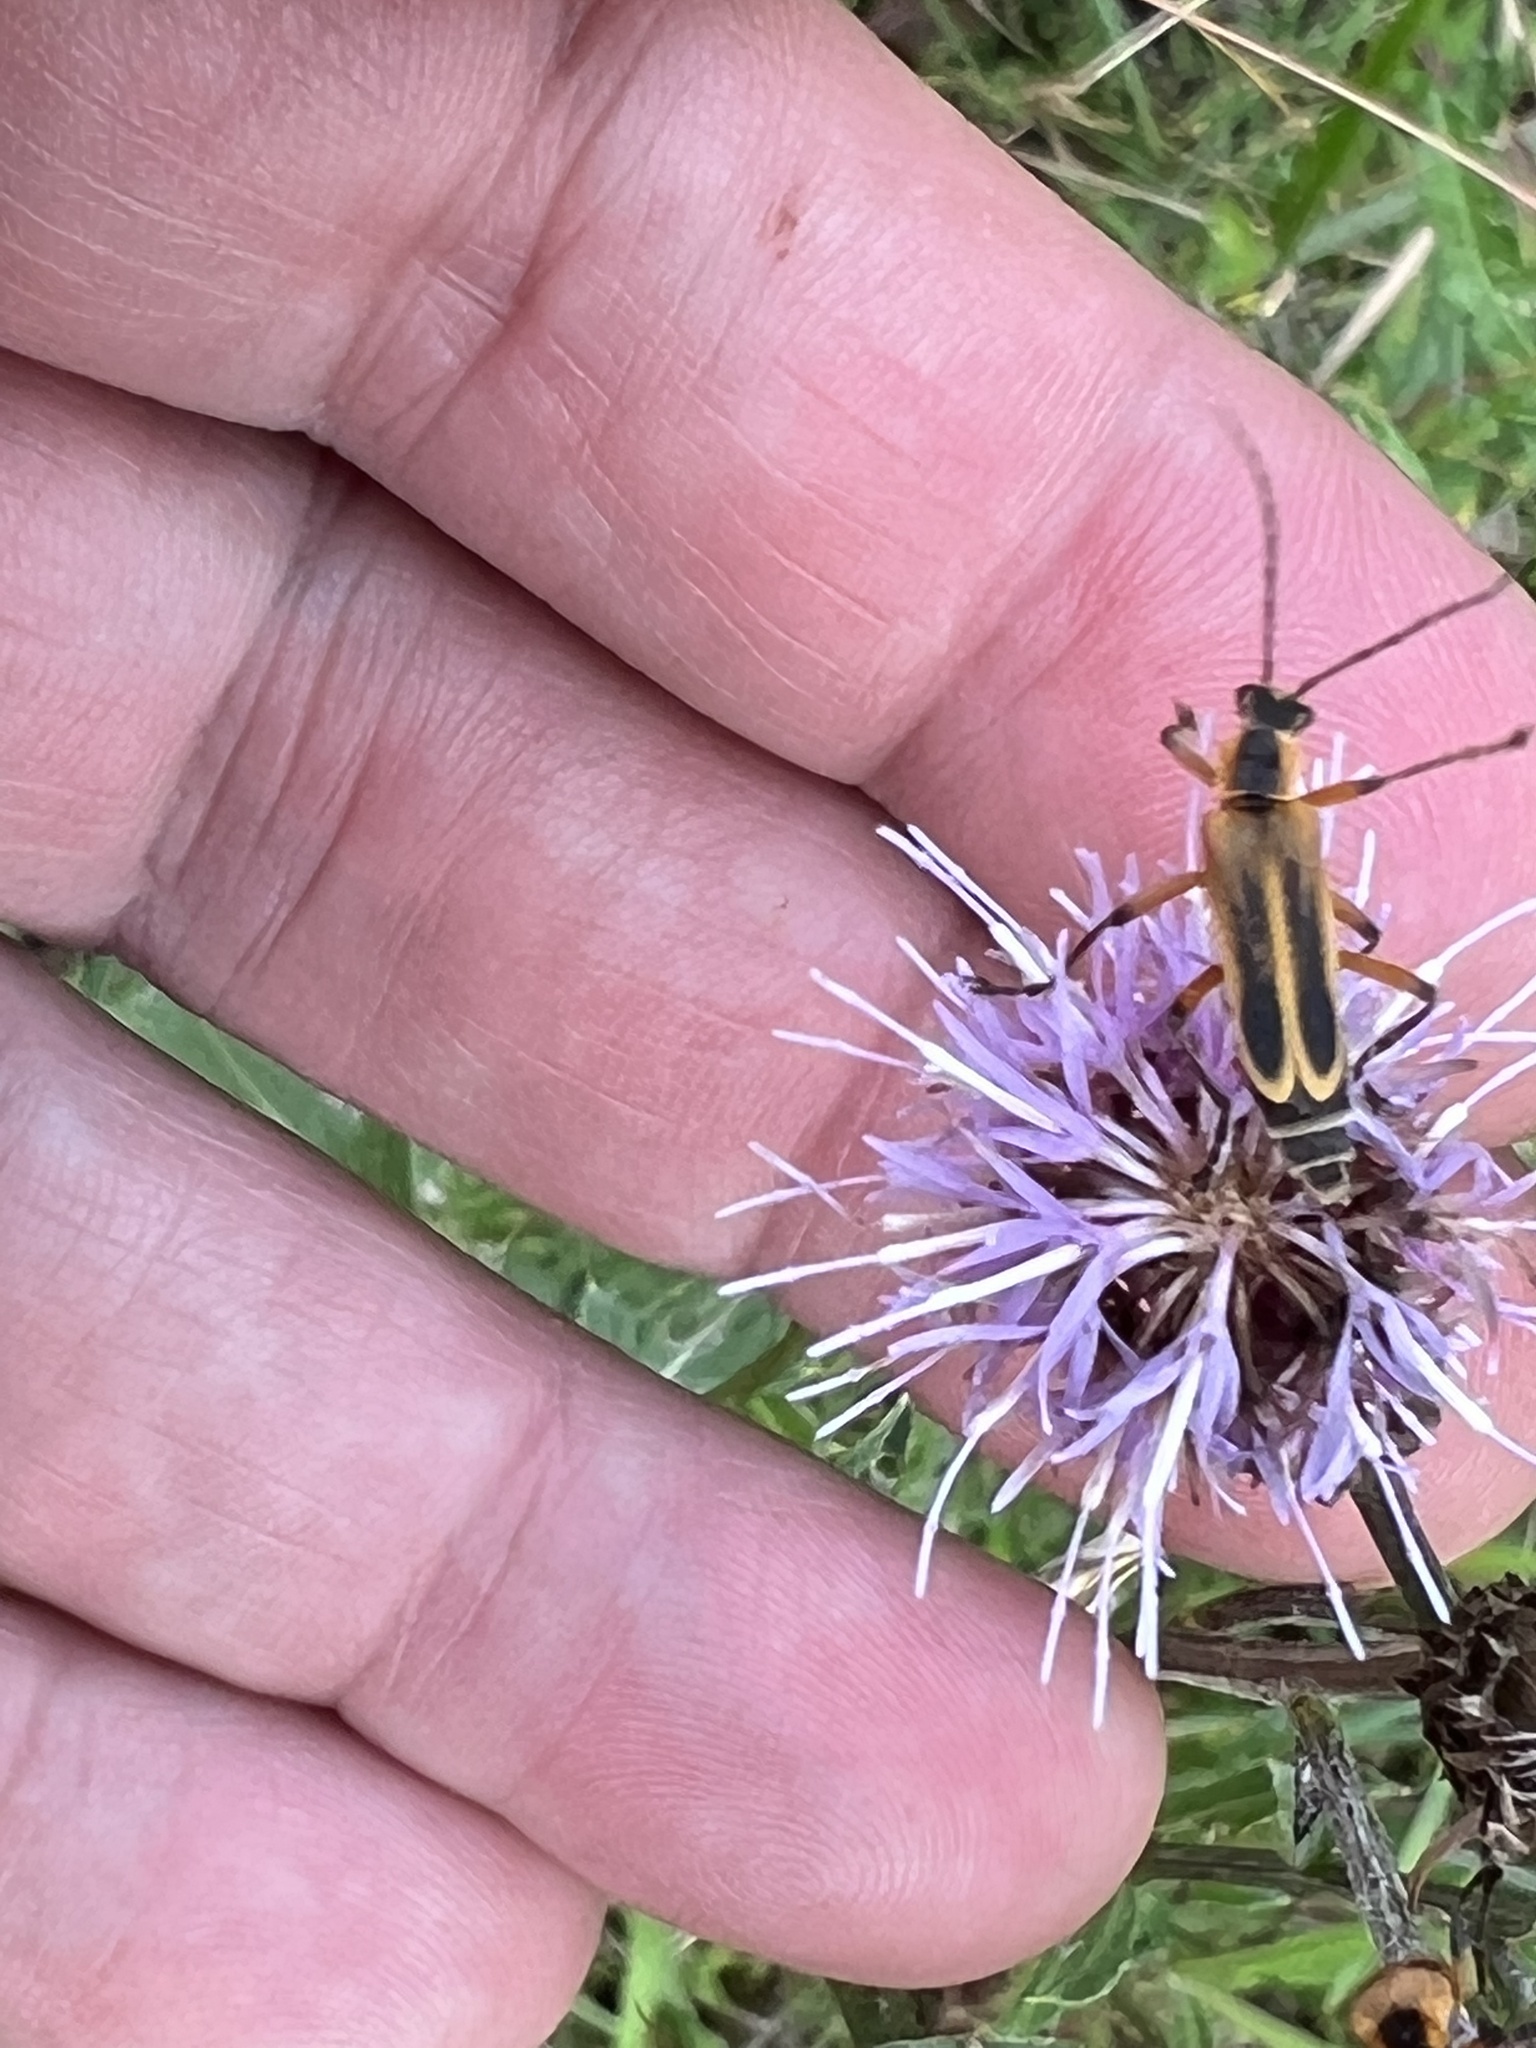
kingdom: Animalia
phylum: Arthropoda
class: Insecta
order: Coleoptera
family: Cantharidae
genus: Chauliognathus
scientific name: Chauliognathus marginatus
